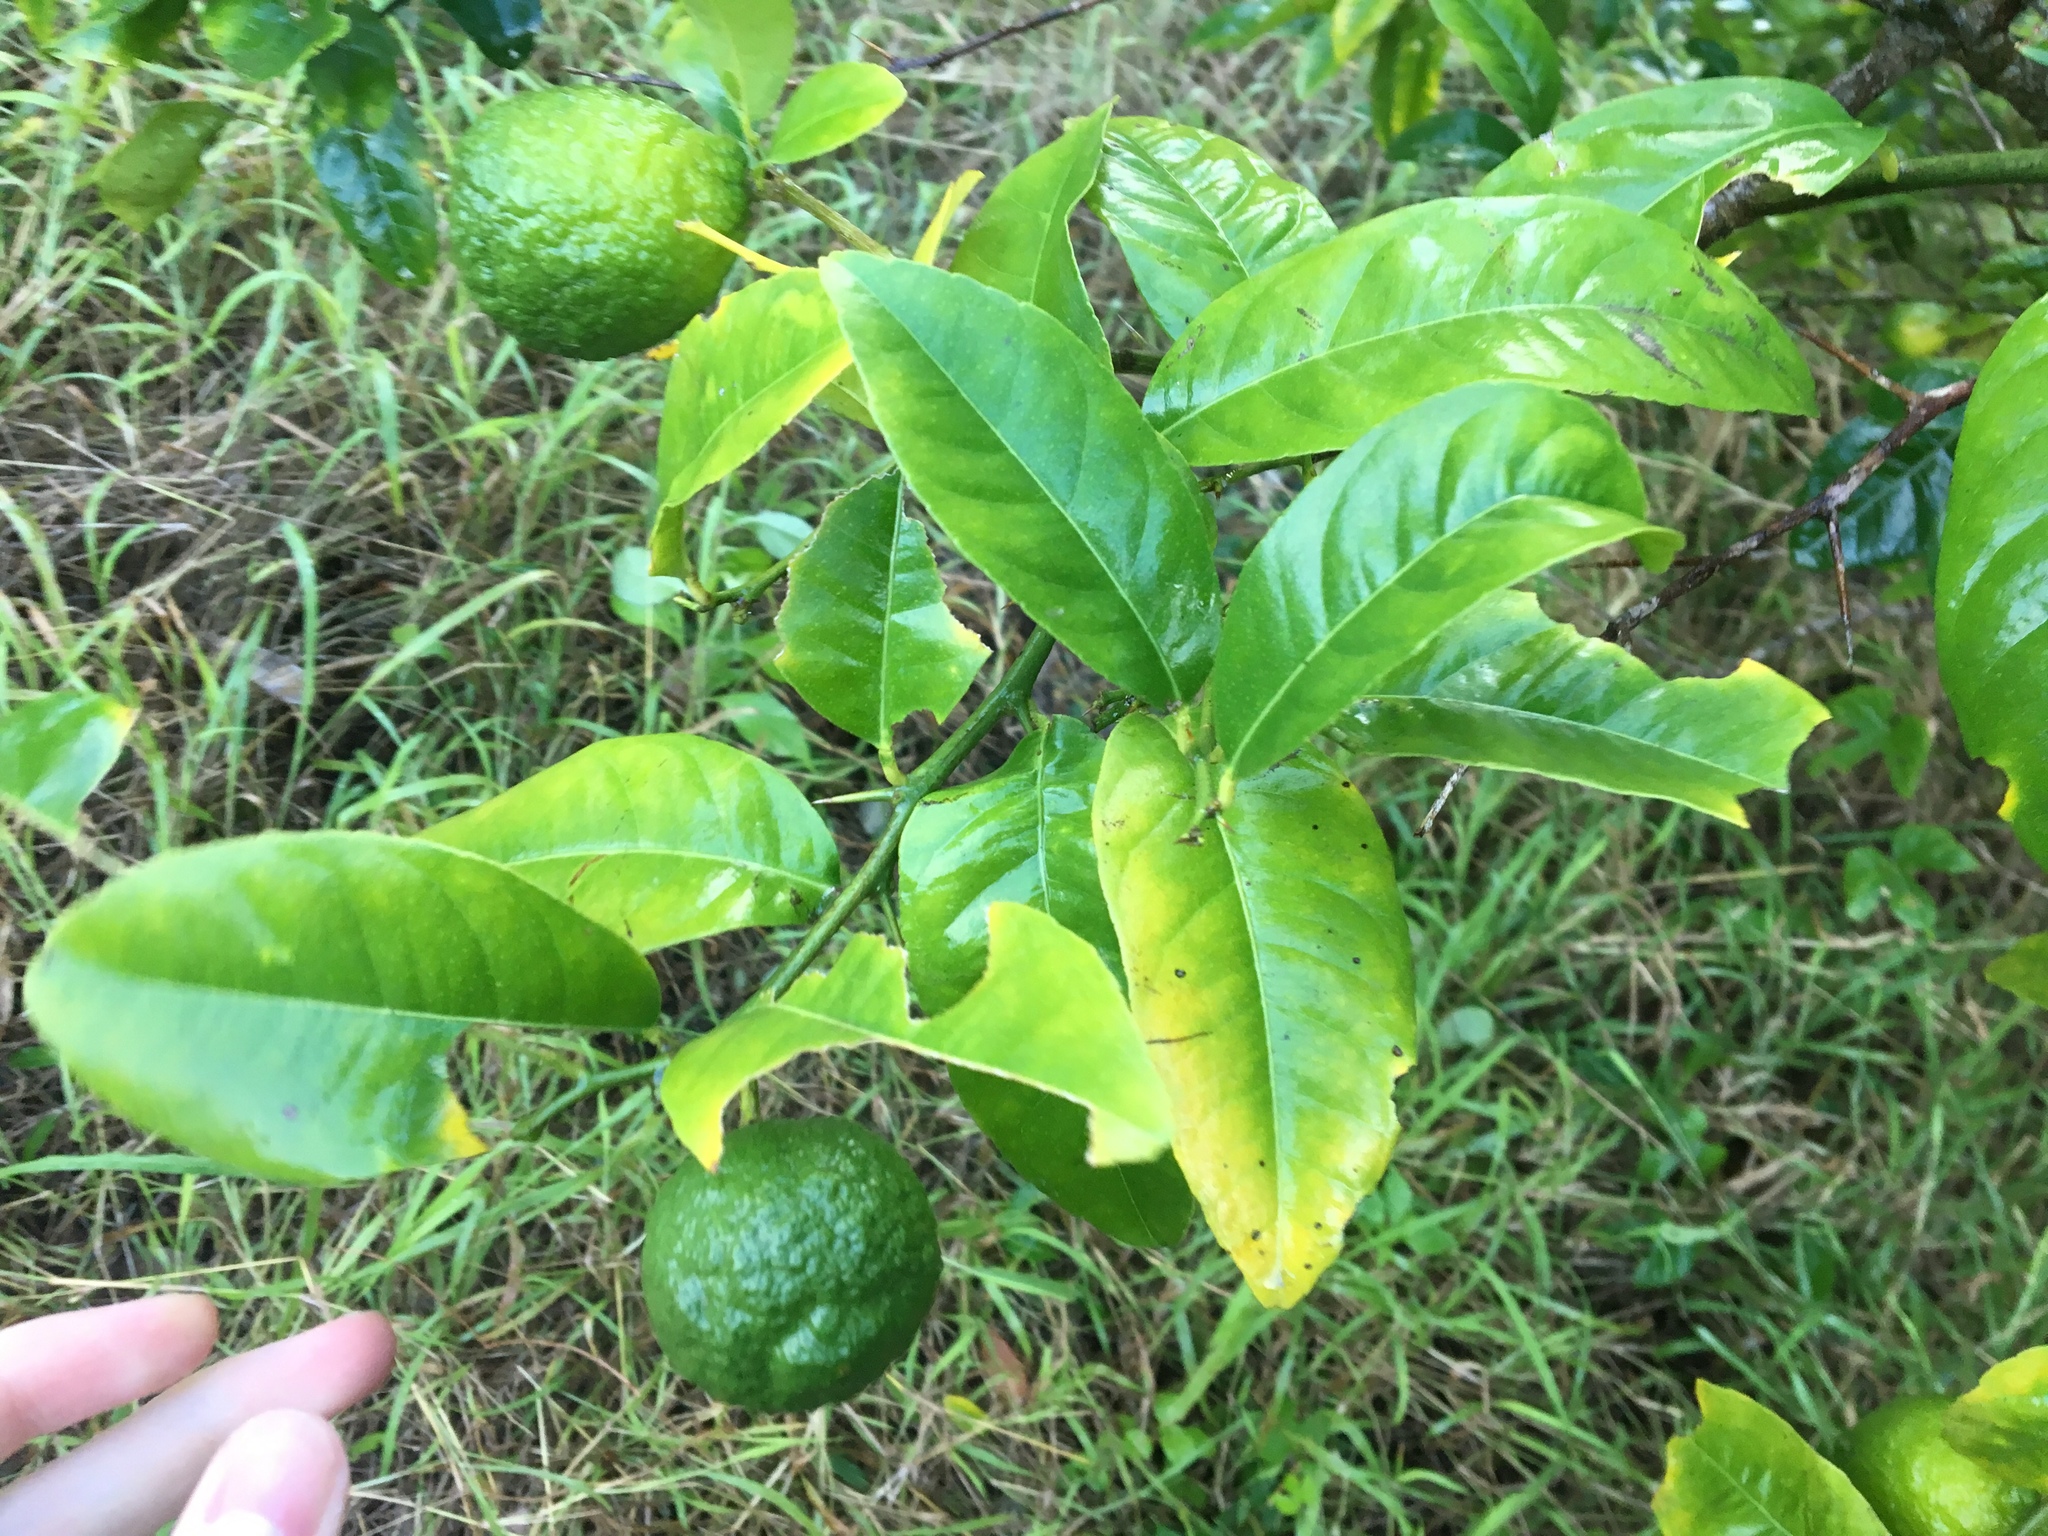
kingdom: Plantae
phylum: Tracheophyta
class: Magnoliopsida
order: Sapindales
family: Rutaceae
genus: Citrus
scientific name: Citrus taitensis
